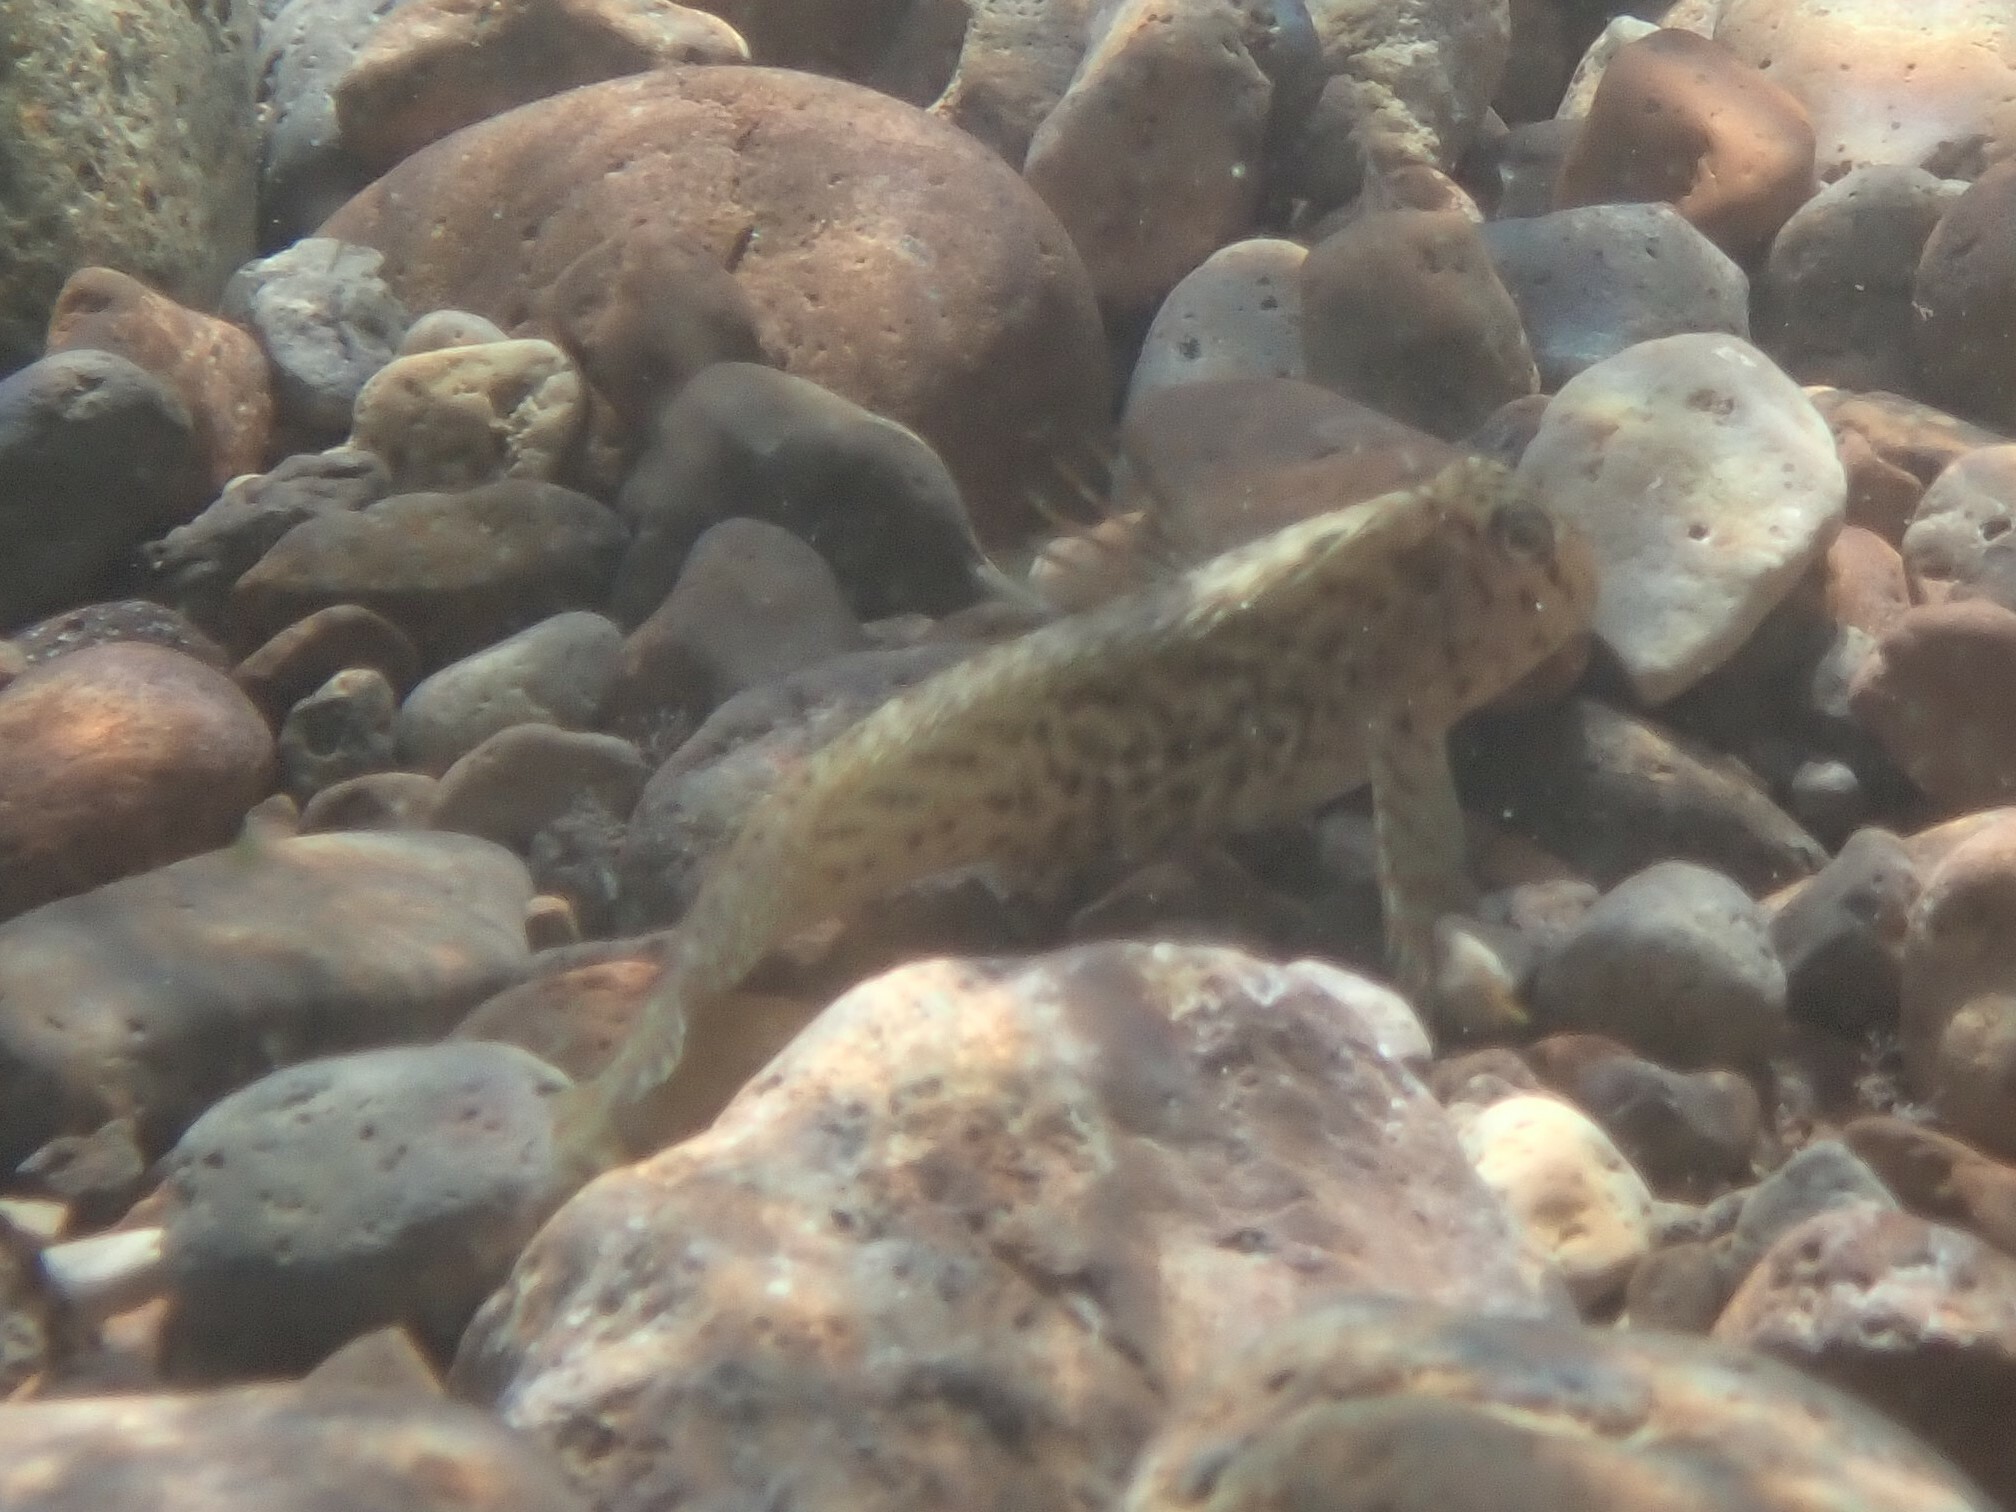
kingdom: Animalia
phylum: Chordata
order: Perciformes
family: Blenniidae
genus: Parablennius
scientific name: Parablennius sanguinolentus
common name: Black sea blenny
